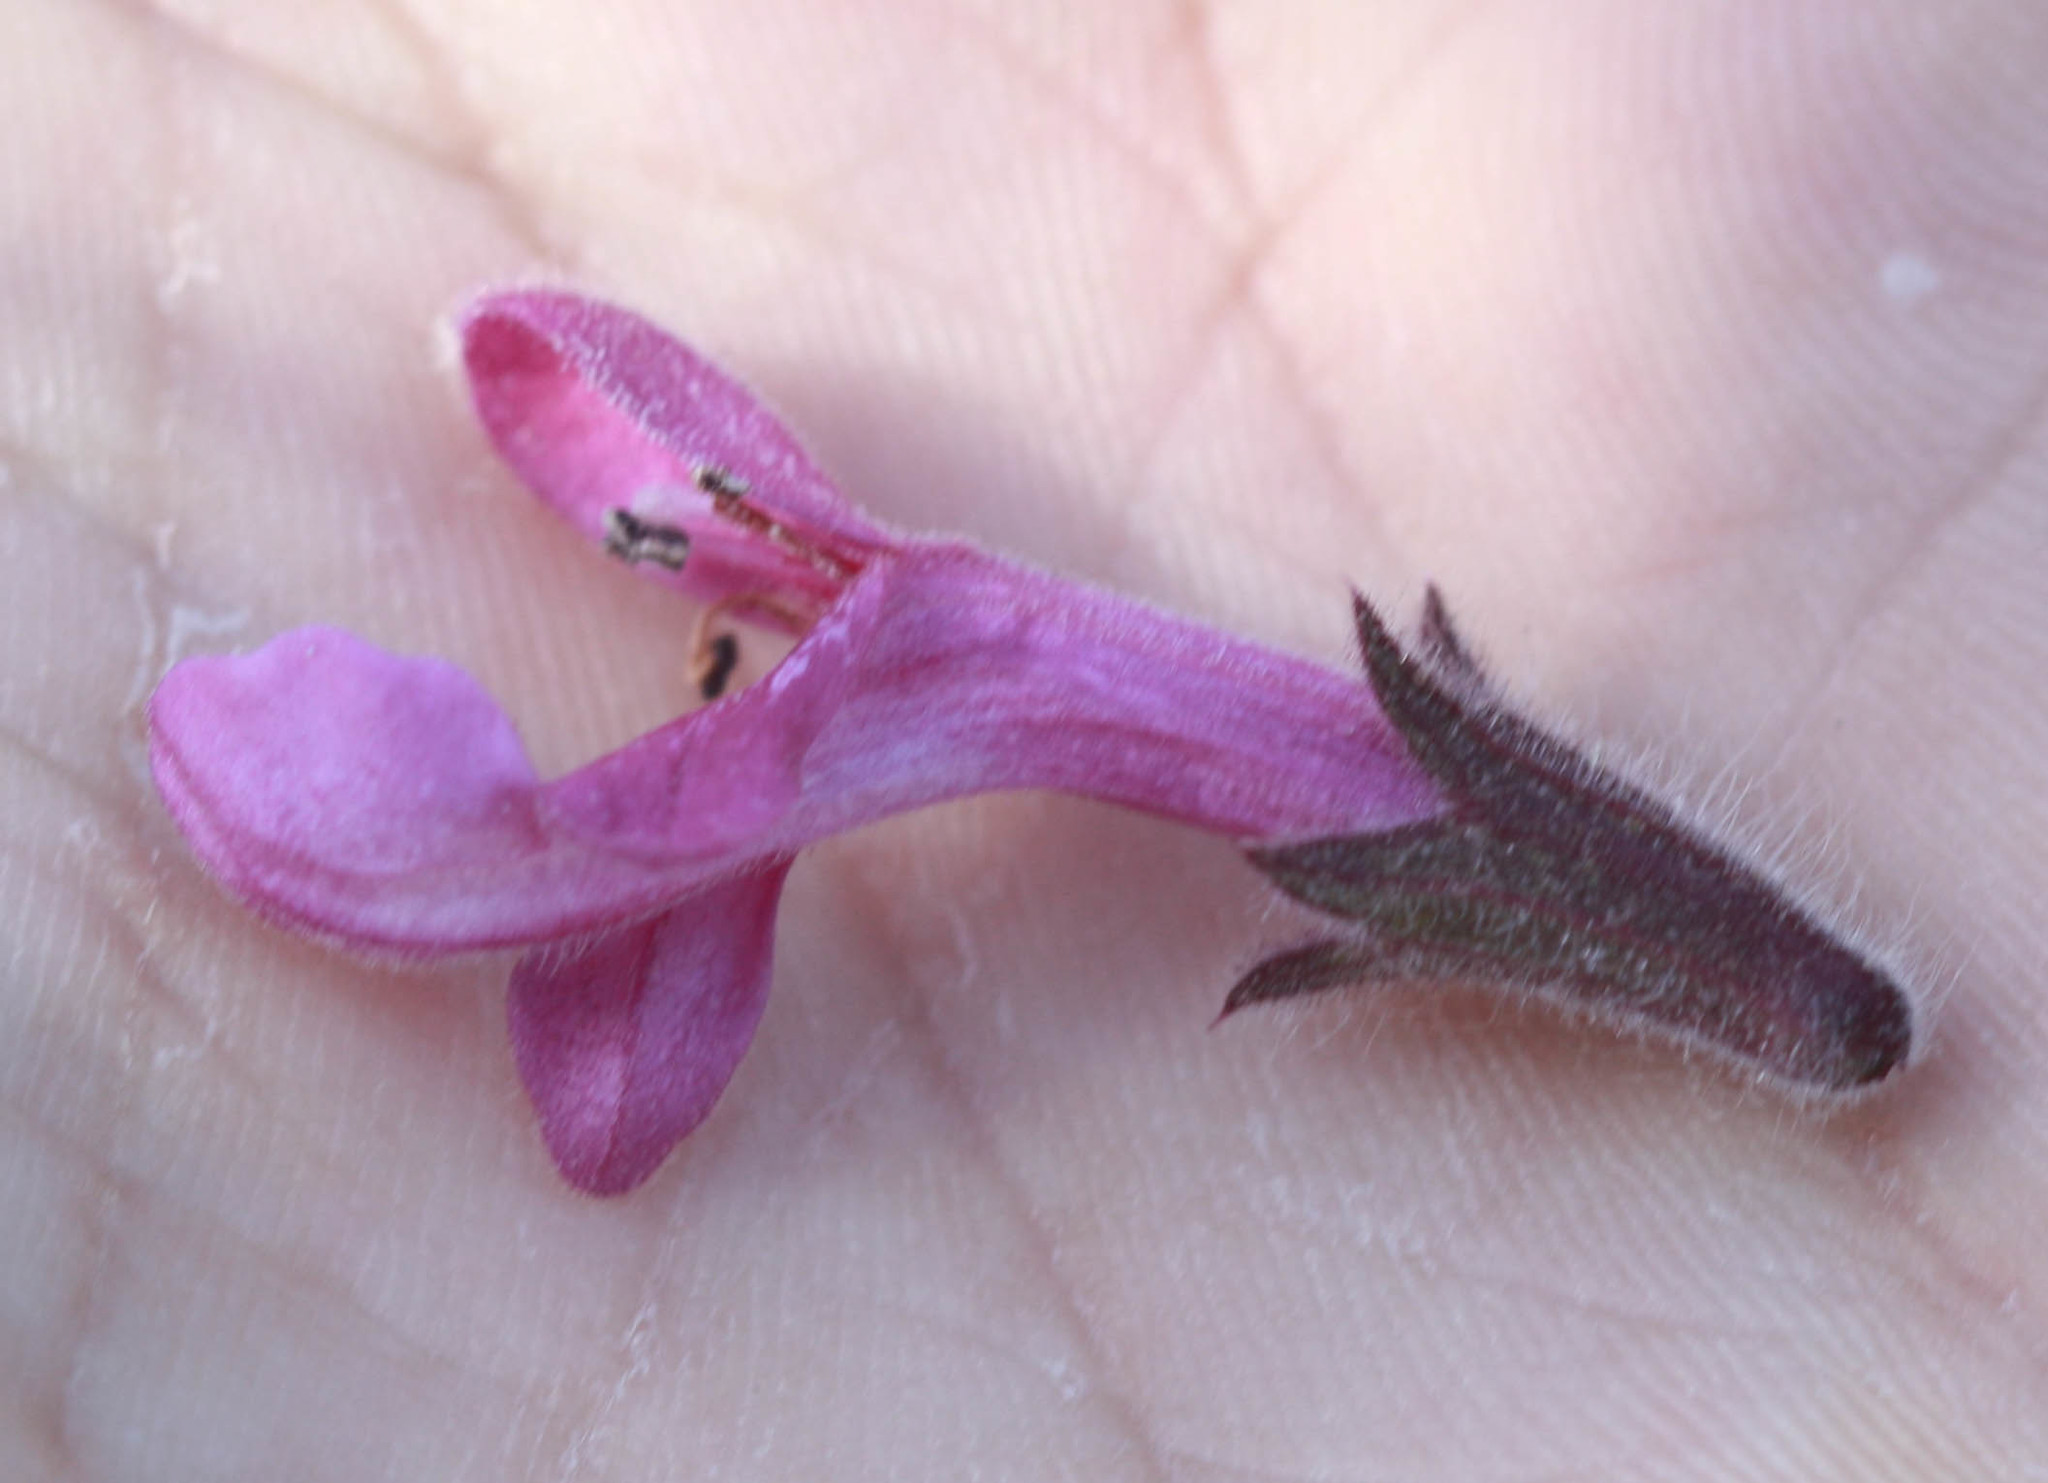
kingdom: Plantae
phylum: Tracheophyta
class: Magnoliopsida
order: Lamiales
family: Lamiaceae
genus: Stachys
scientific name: Stachys chamissonis
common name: Coastal hedge-nettle
